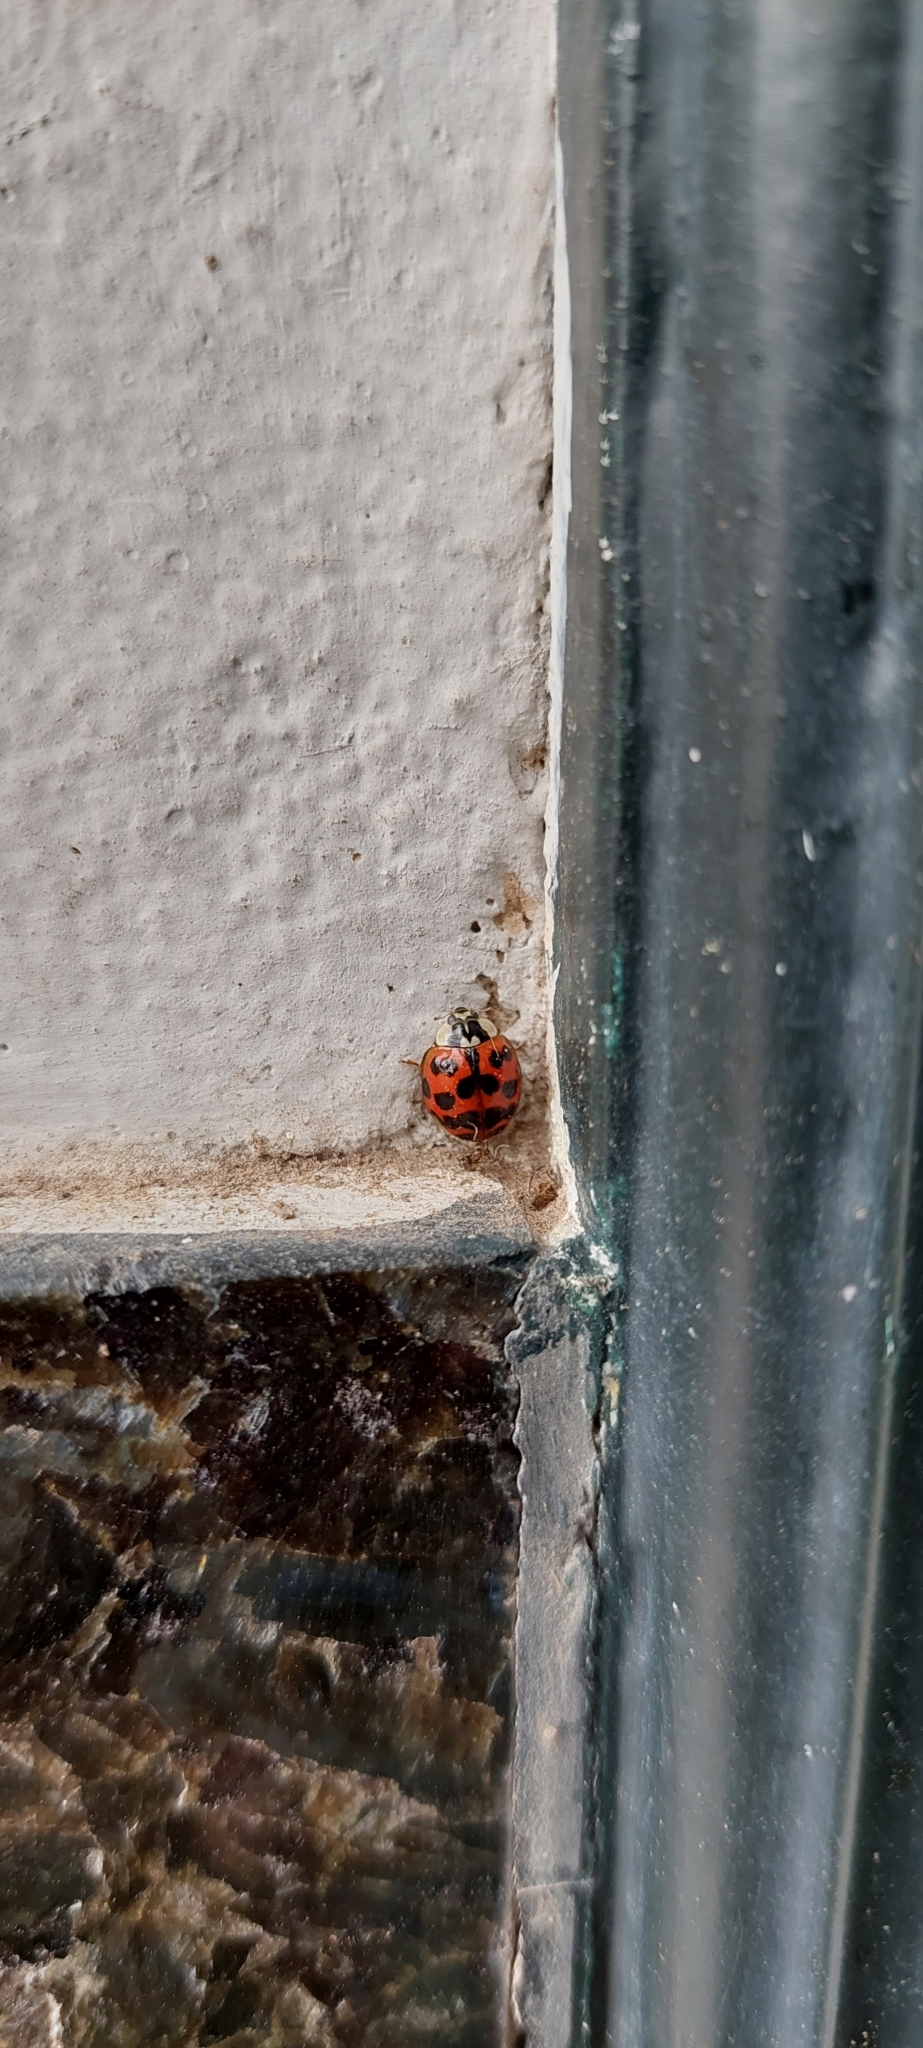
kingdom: Animalia
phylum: Arthropoda
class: Insecta
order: Coleoptera
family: Coccinellidae
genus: Harmonia
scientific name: Harmonia axyridis
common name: Harlequin ladybird
